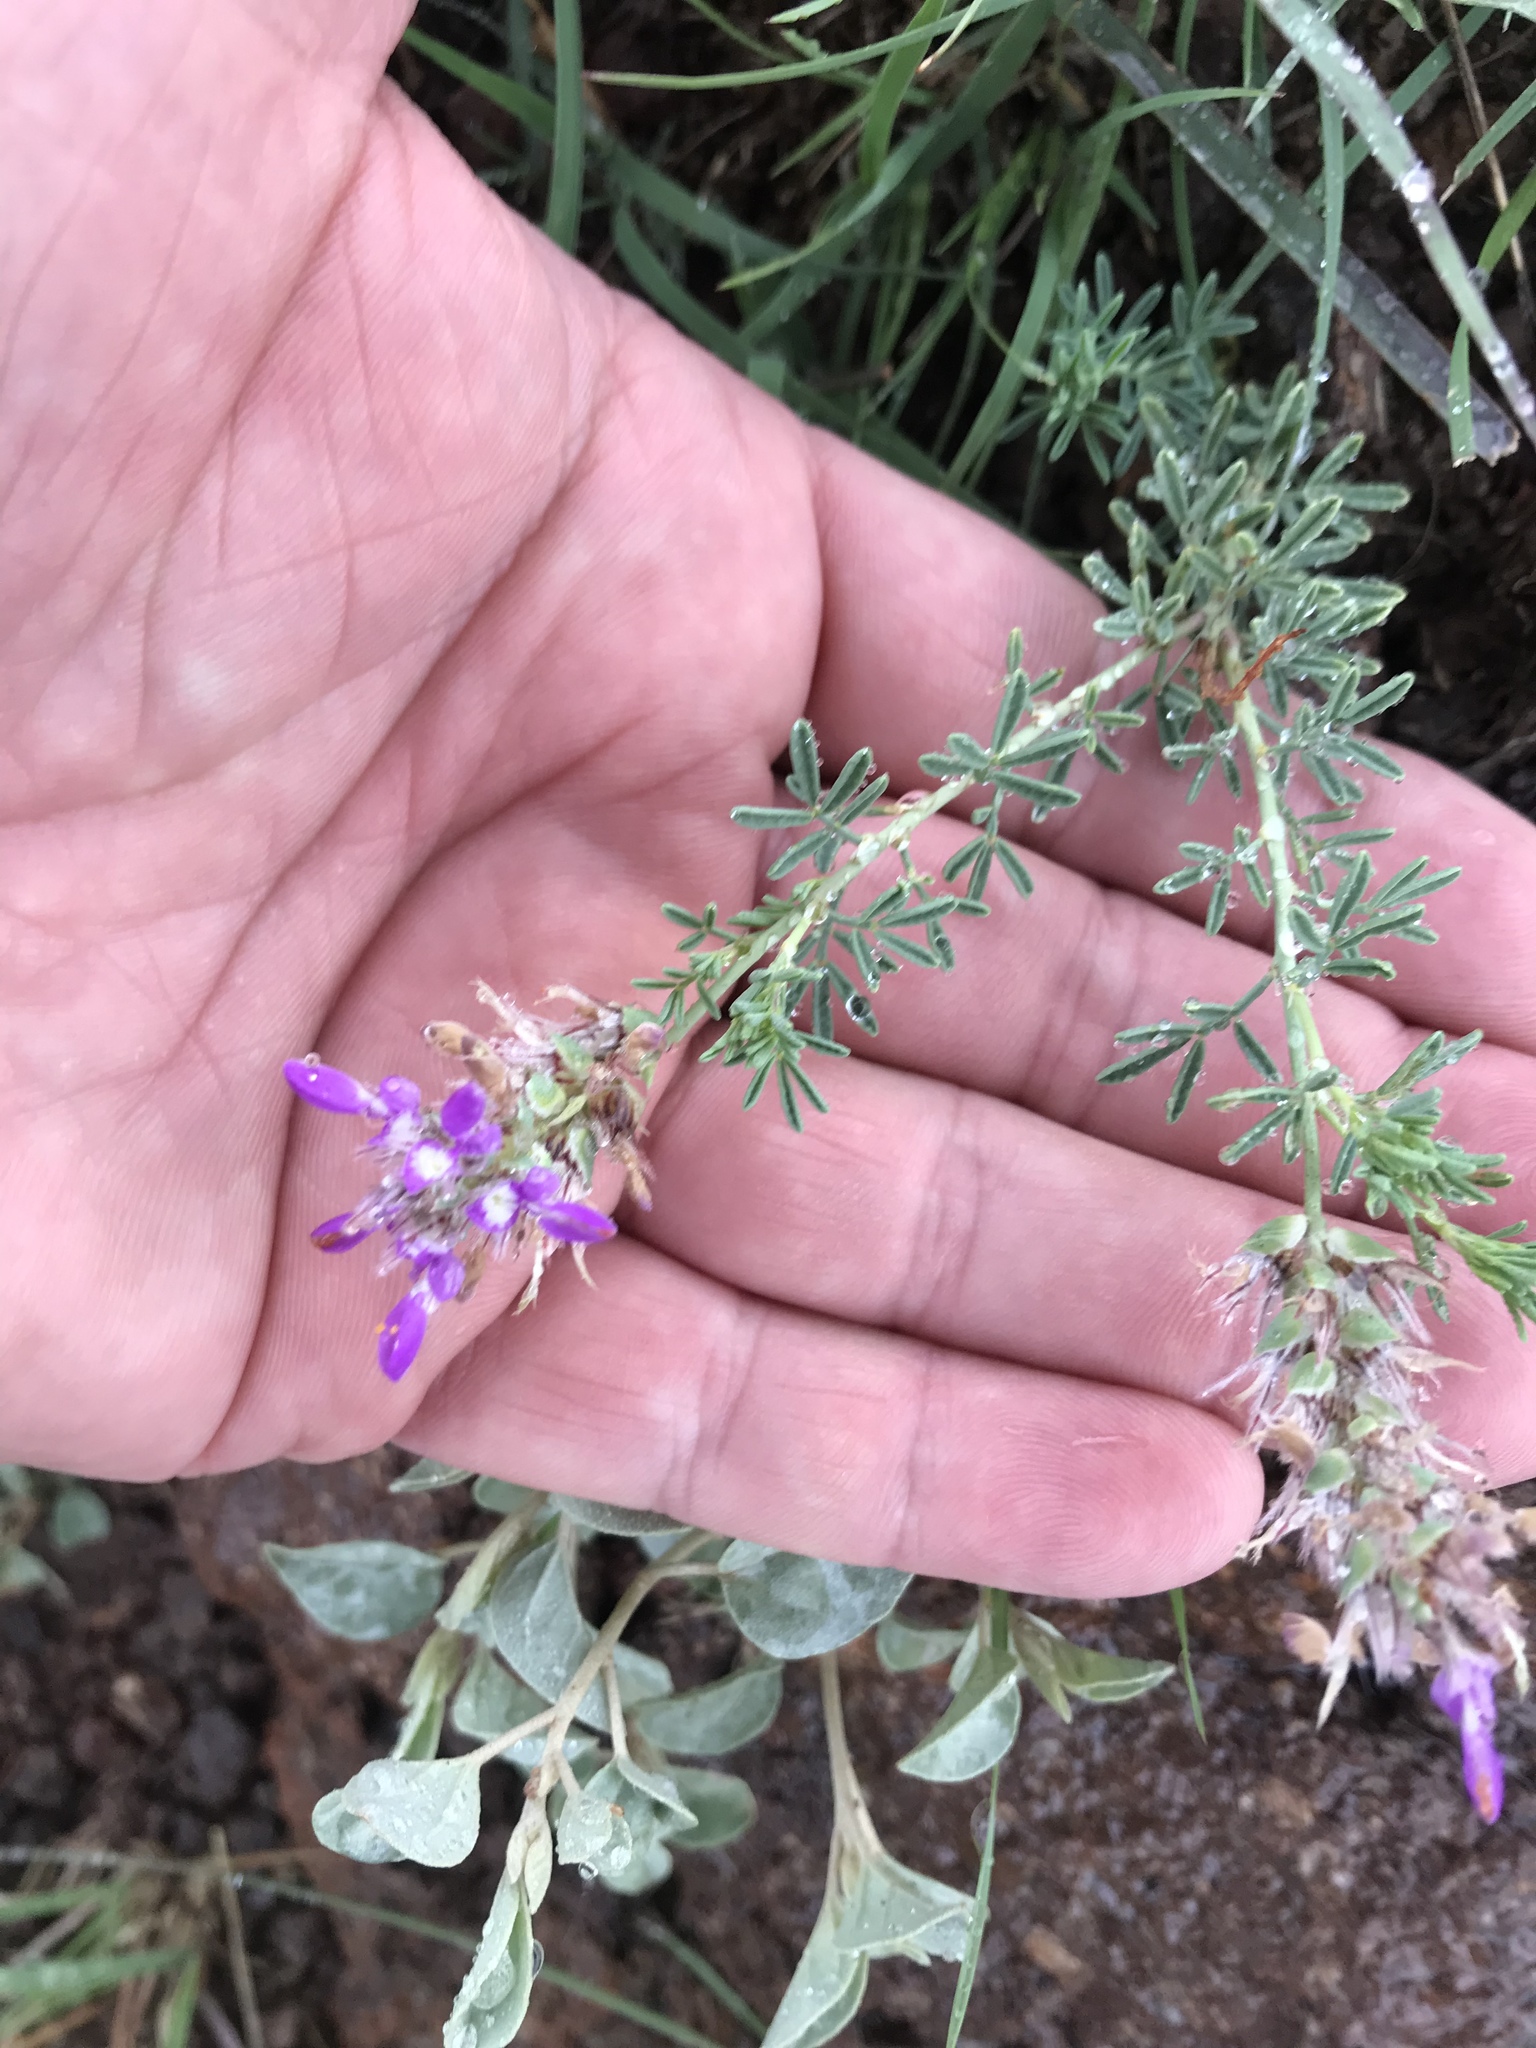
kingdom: Plantae
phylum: Tracheophyta
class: Magnoliopsida
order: Fabales
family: Fabaceae
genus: Dalea
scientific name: Dalea pogonathera
